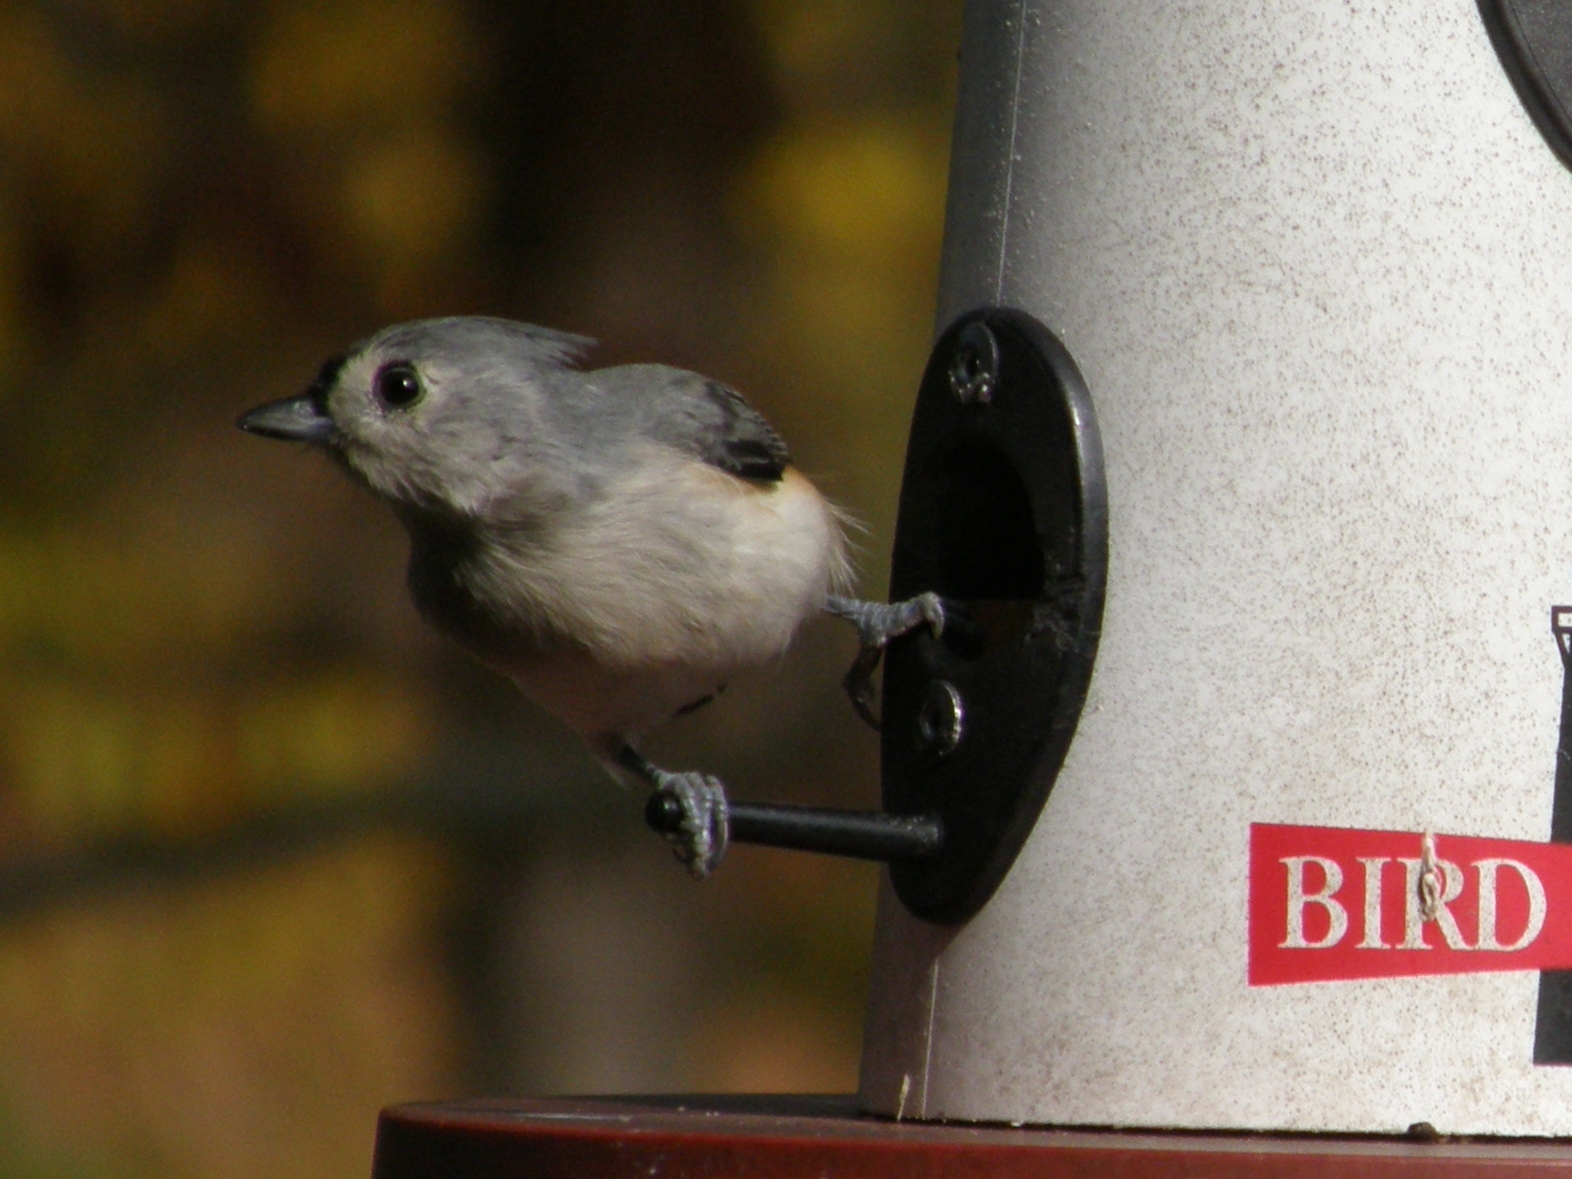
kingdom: Animalia
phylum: Chordata
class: Aves
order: Passeriformes
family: Paridae
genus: Baeolophus
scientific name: Baeolophus bicolor
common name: Tufted titmouse
